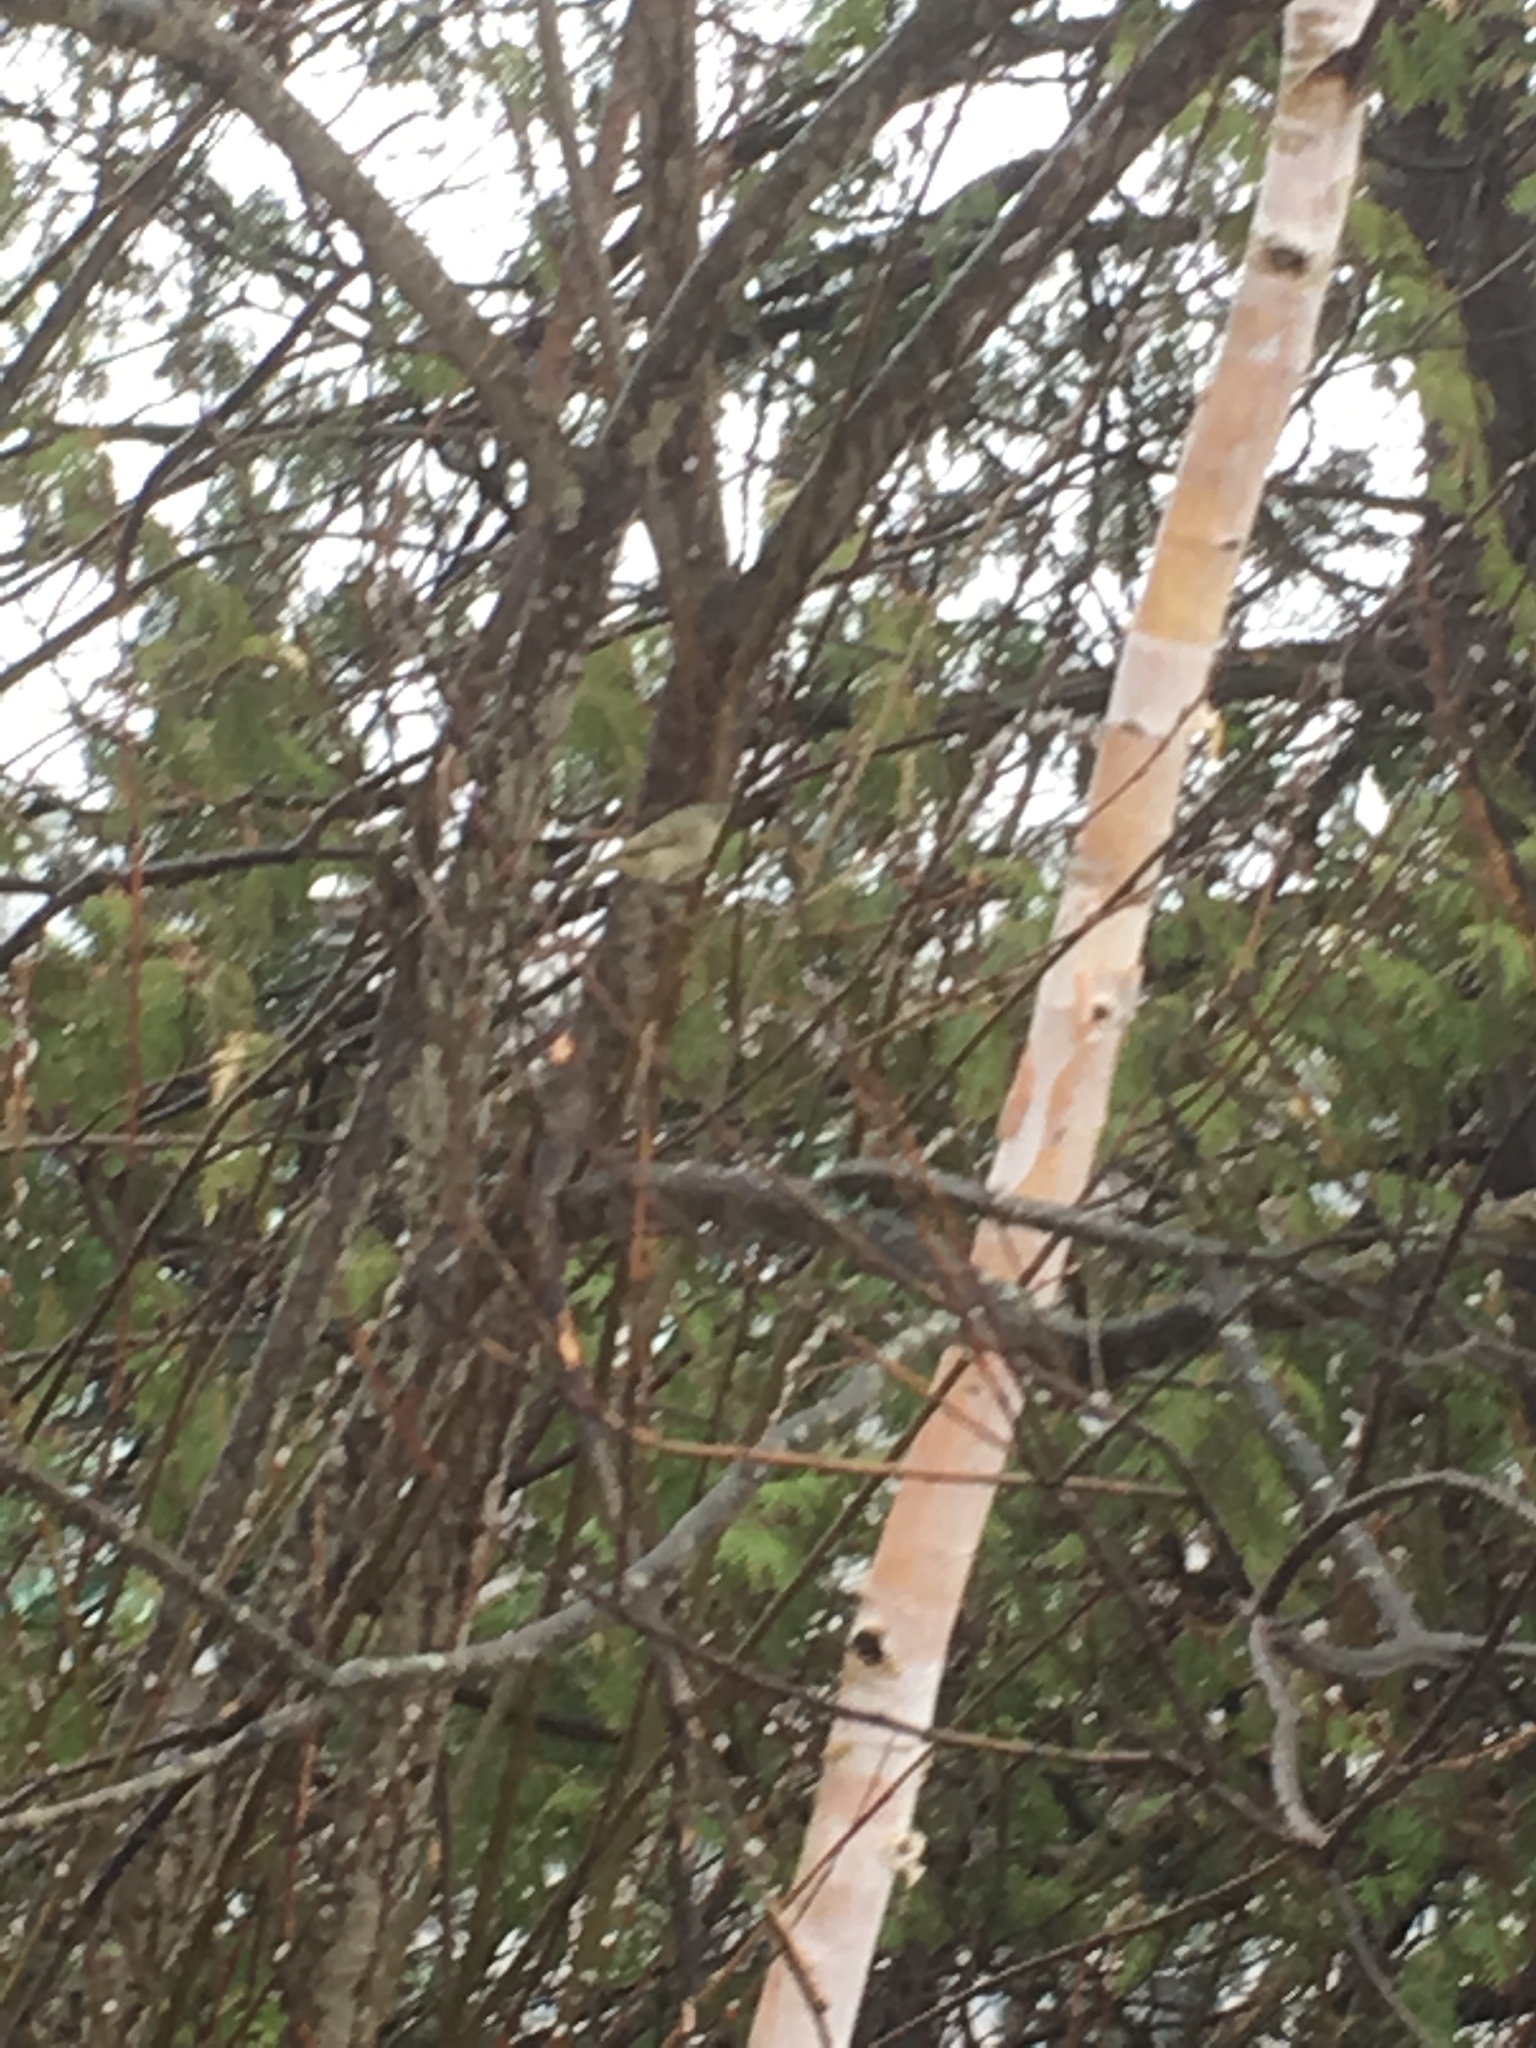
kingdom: Animalia
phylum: Chordata
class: Aves
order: Passeriformes
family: Regulidae
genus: Regulus
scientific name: Regulus calendula
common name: Ruby-crowned kinglet
